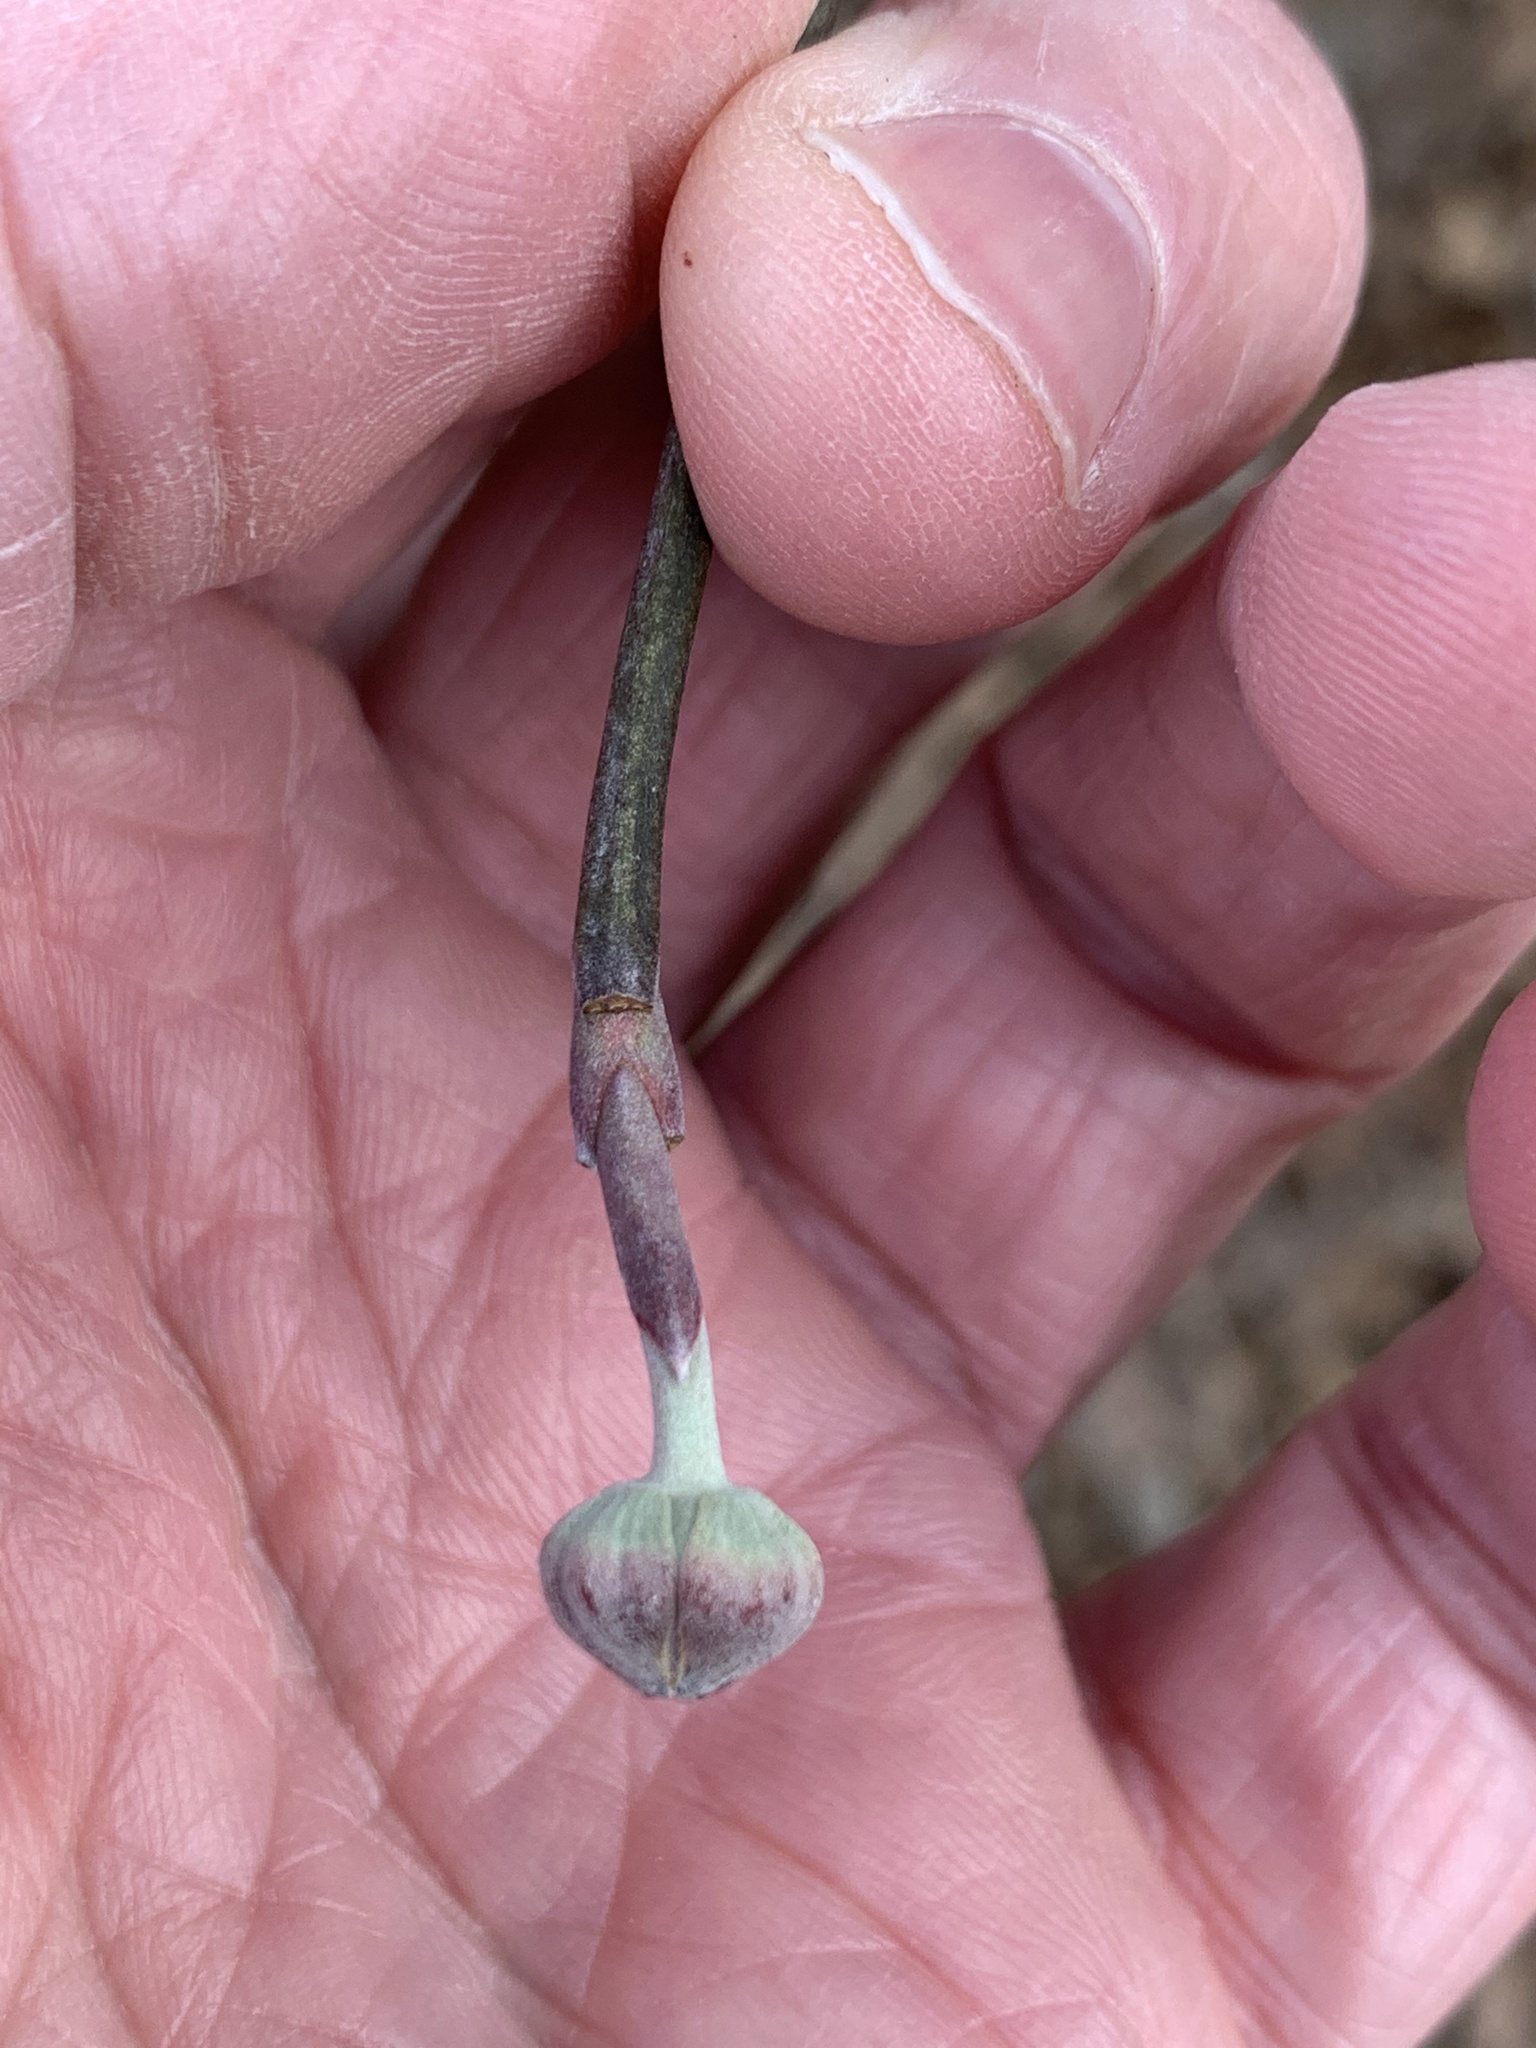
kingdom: Plantae
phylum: Tracheophyta
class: Magnoliopsida
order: Cornales
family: Cornaceae
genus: Cornus
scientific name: Cornus florida
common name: Flowering dogwood
